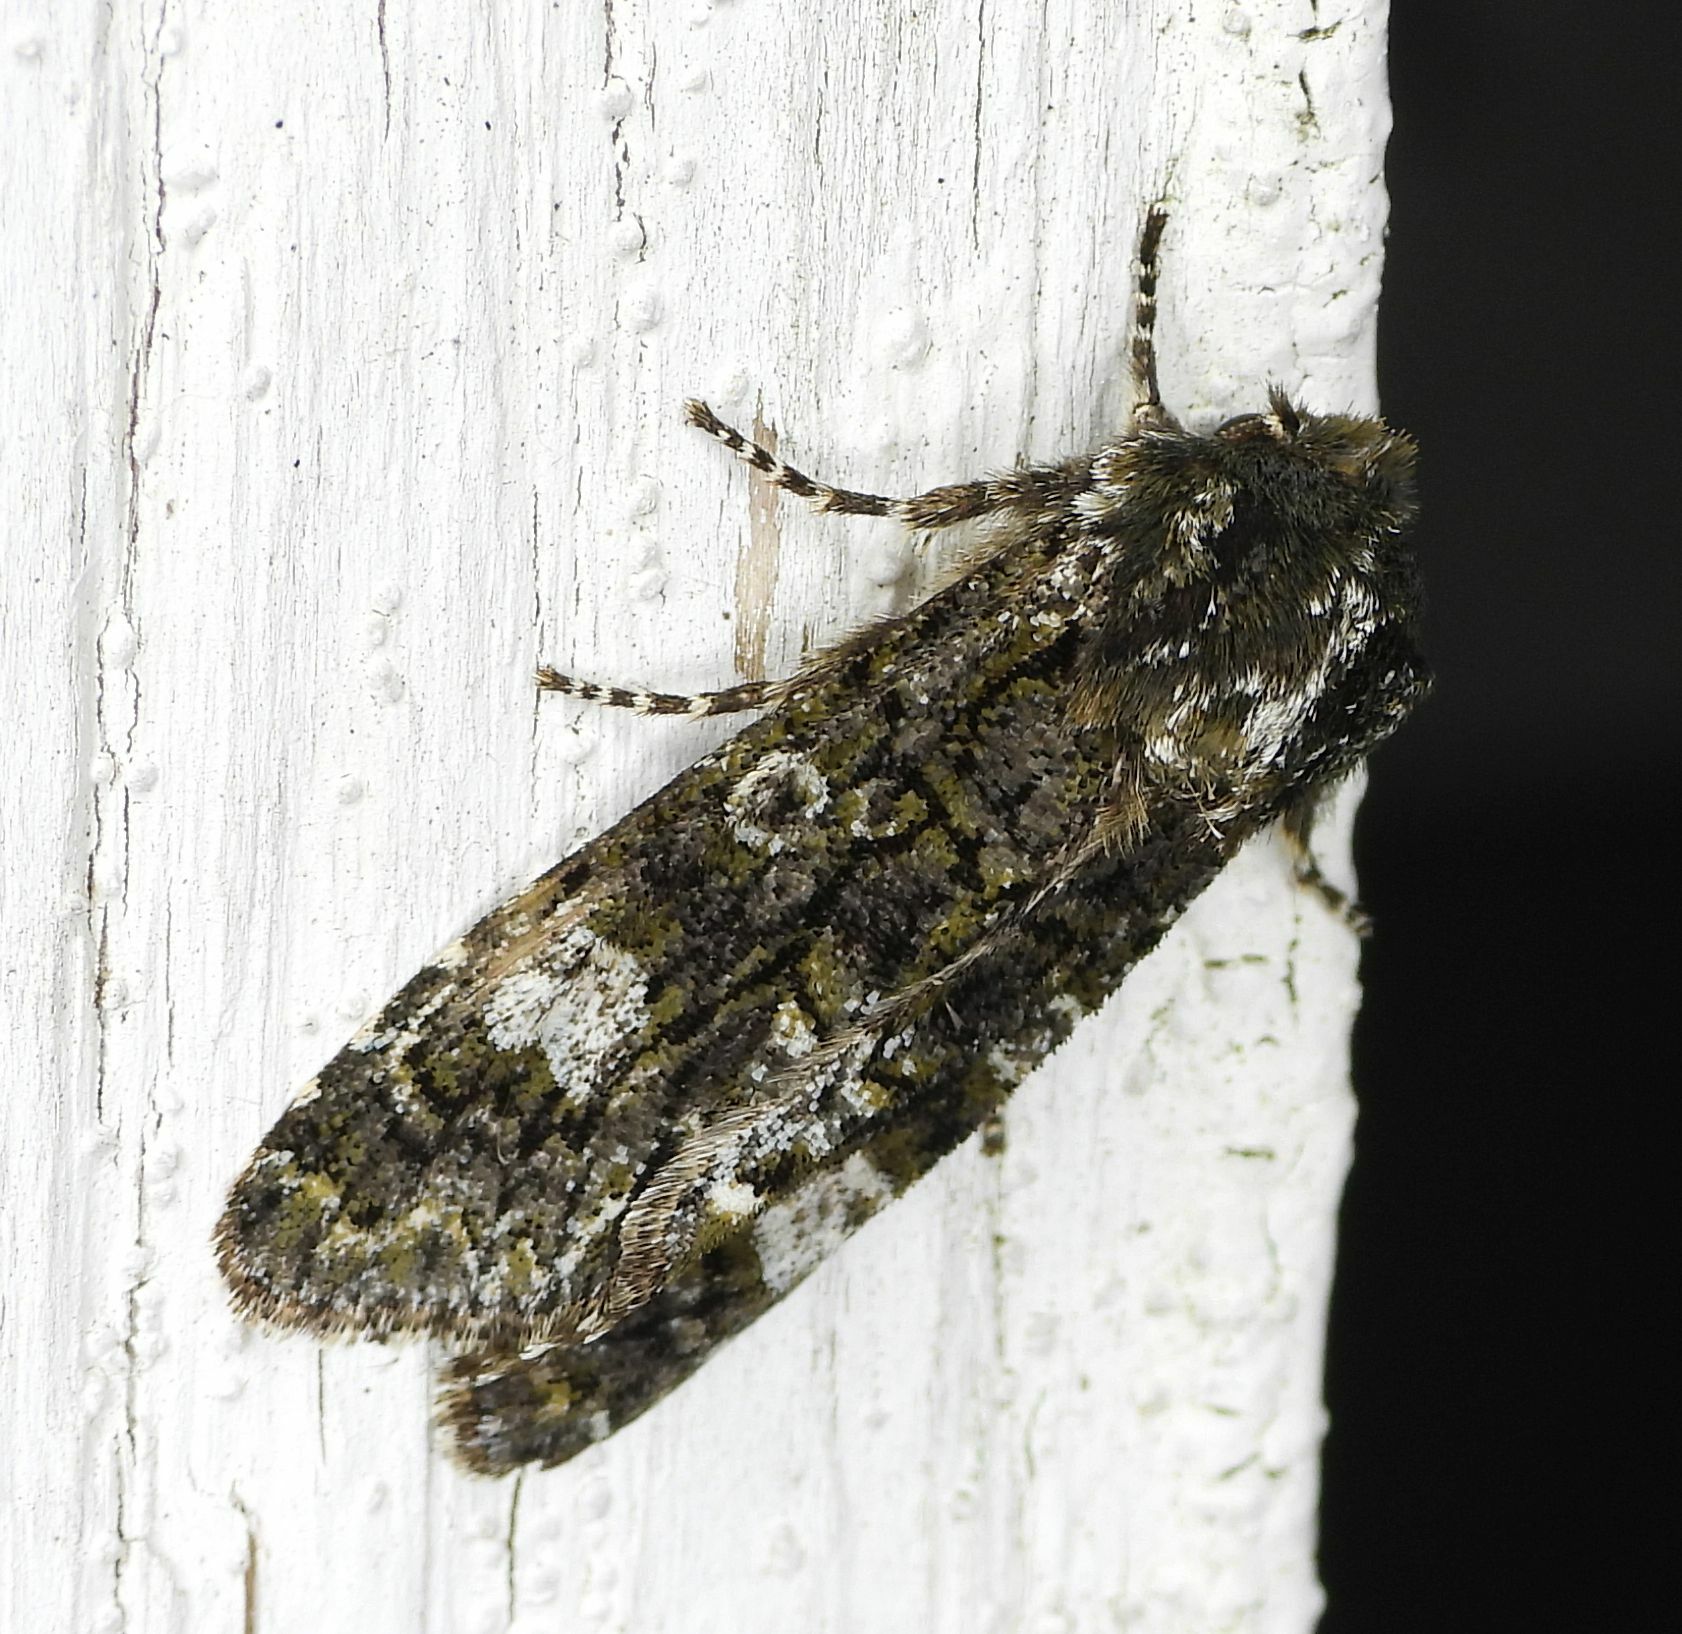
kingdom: Animalia
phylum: Arthropoda
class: Insecta
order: Lepidoptera
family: Noctuidae
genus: Psaphida
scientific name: Psaphida grotei
